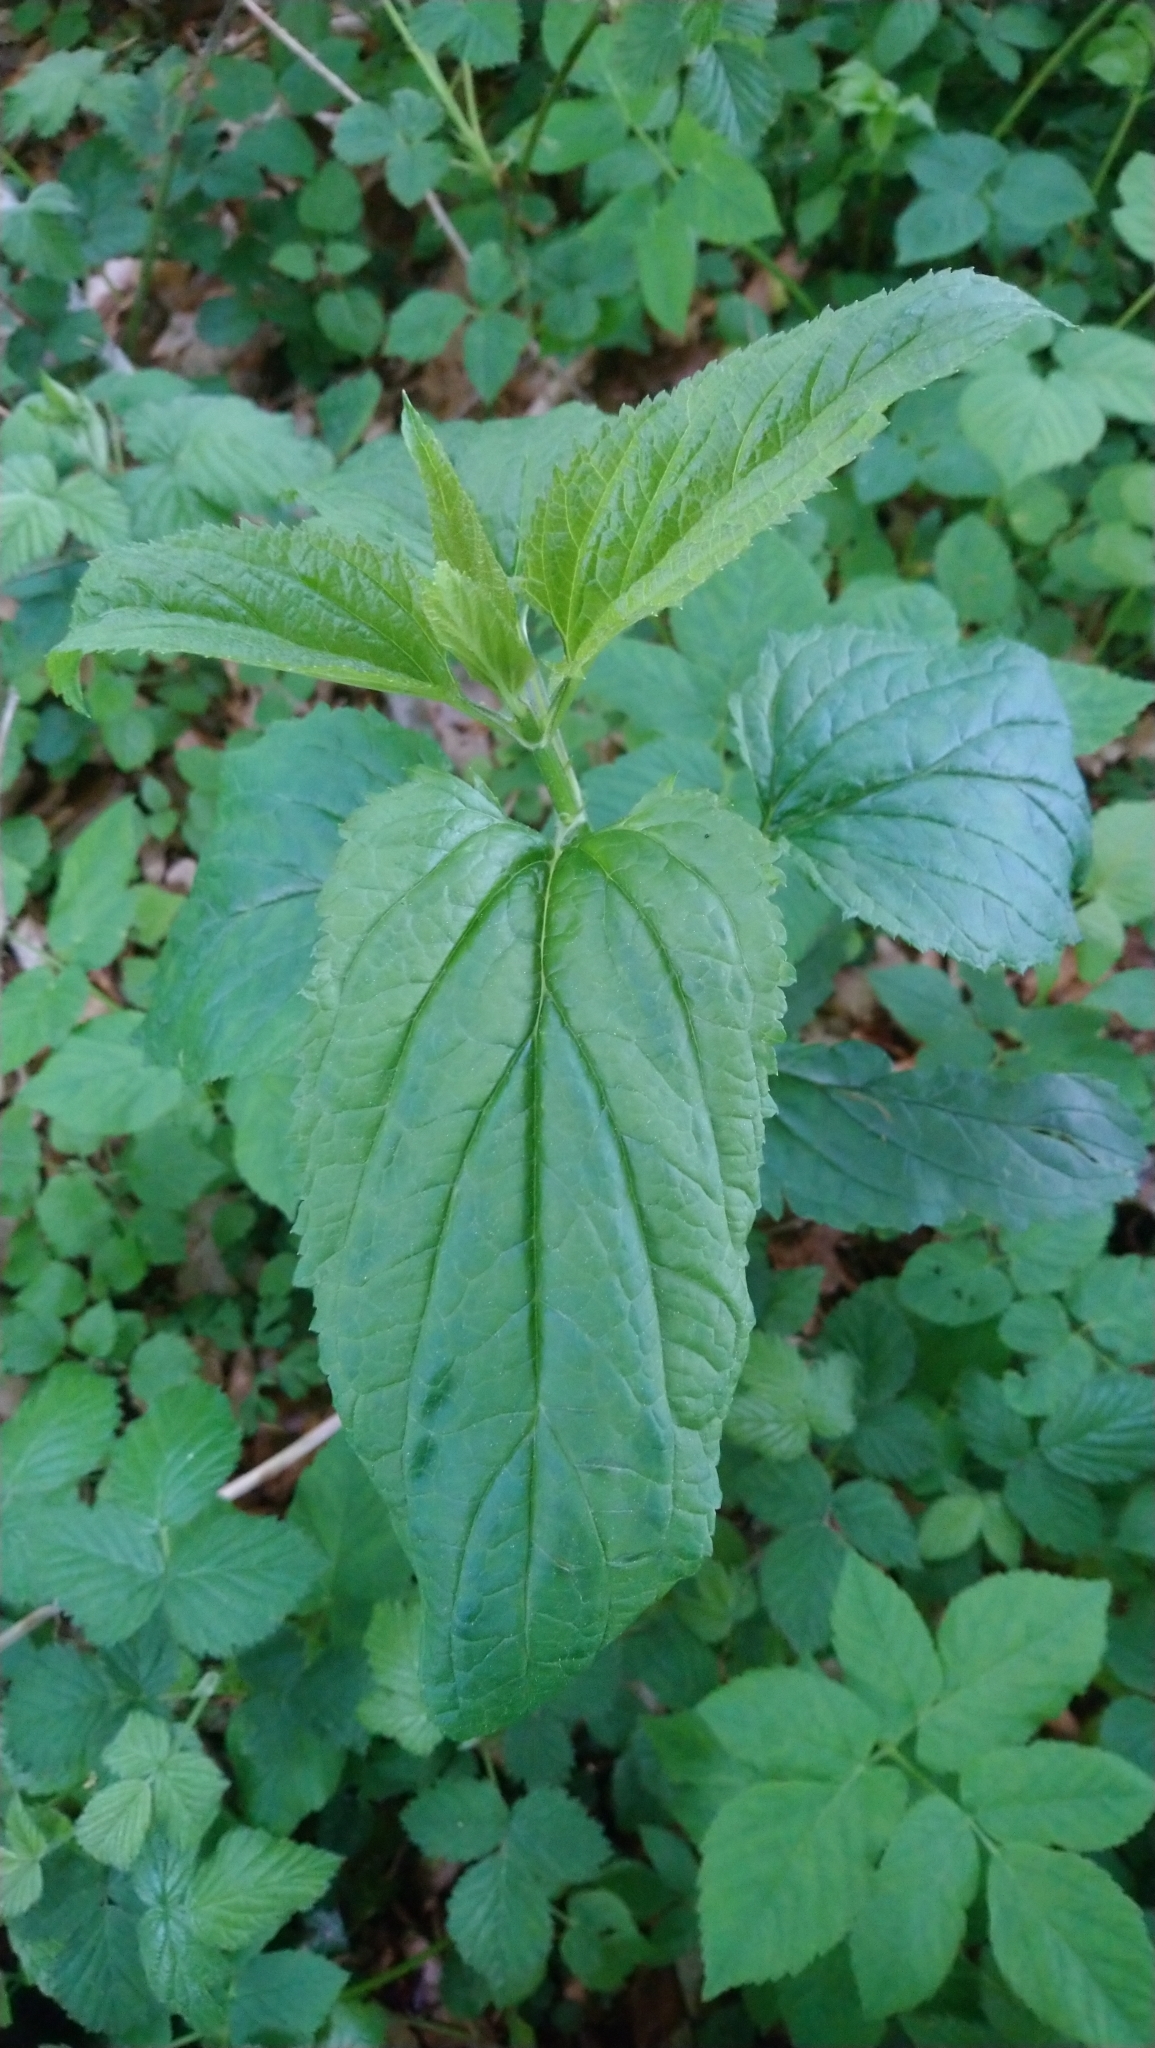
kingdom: Plantae
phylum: Tracheophyta
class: Magnoliopsida
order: Lamiales
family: Scrophulariaceae
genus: Scrophularia
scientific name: Scrophularia nodosa
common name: Common figwort
